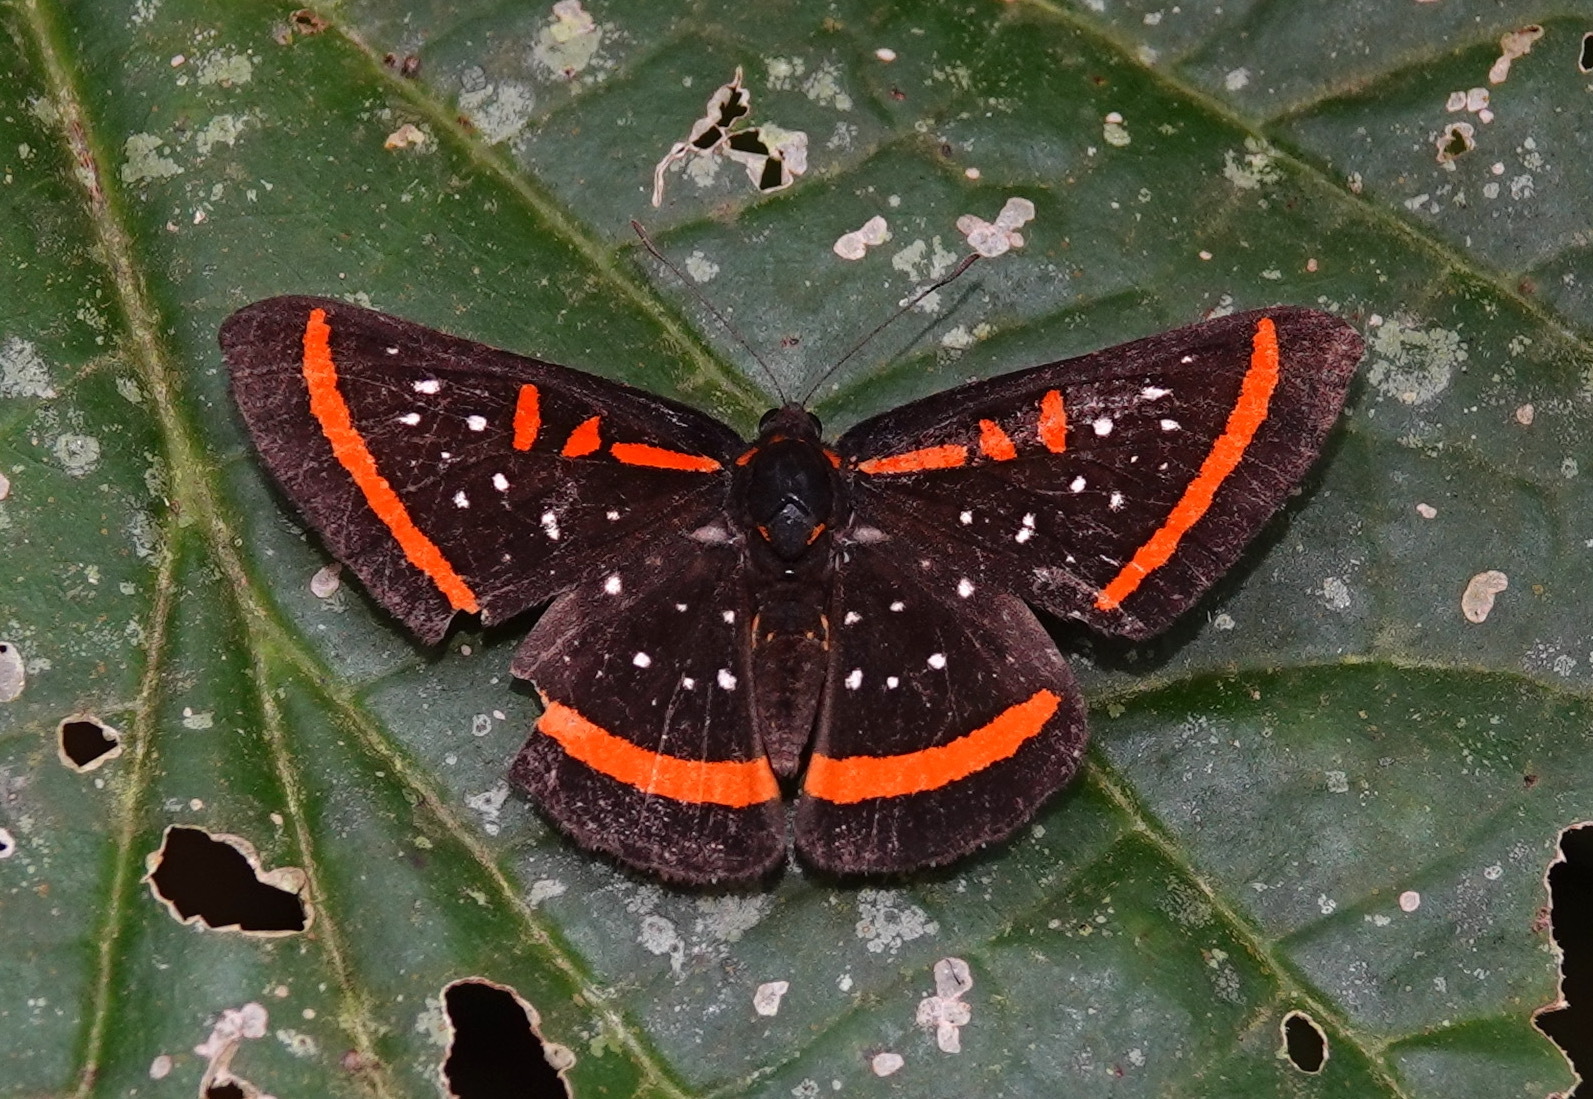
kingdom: Animalia
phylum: Arthropoda
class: Insecta
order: Lepidoptera
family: Riodinidae
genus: Amarynthis
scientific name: Amarynthis meneria
